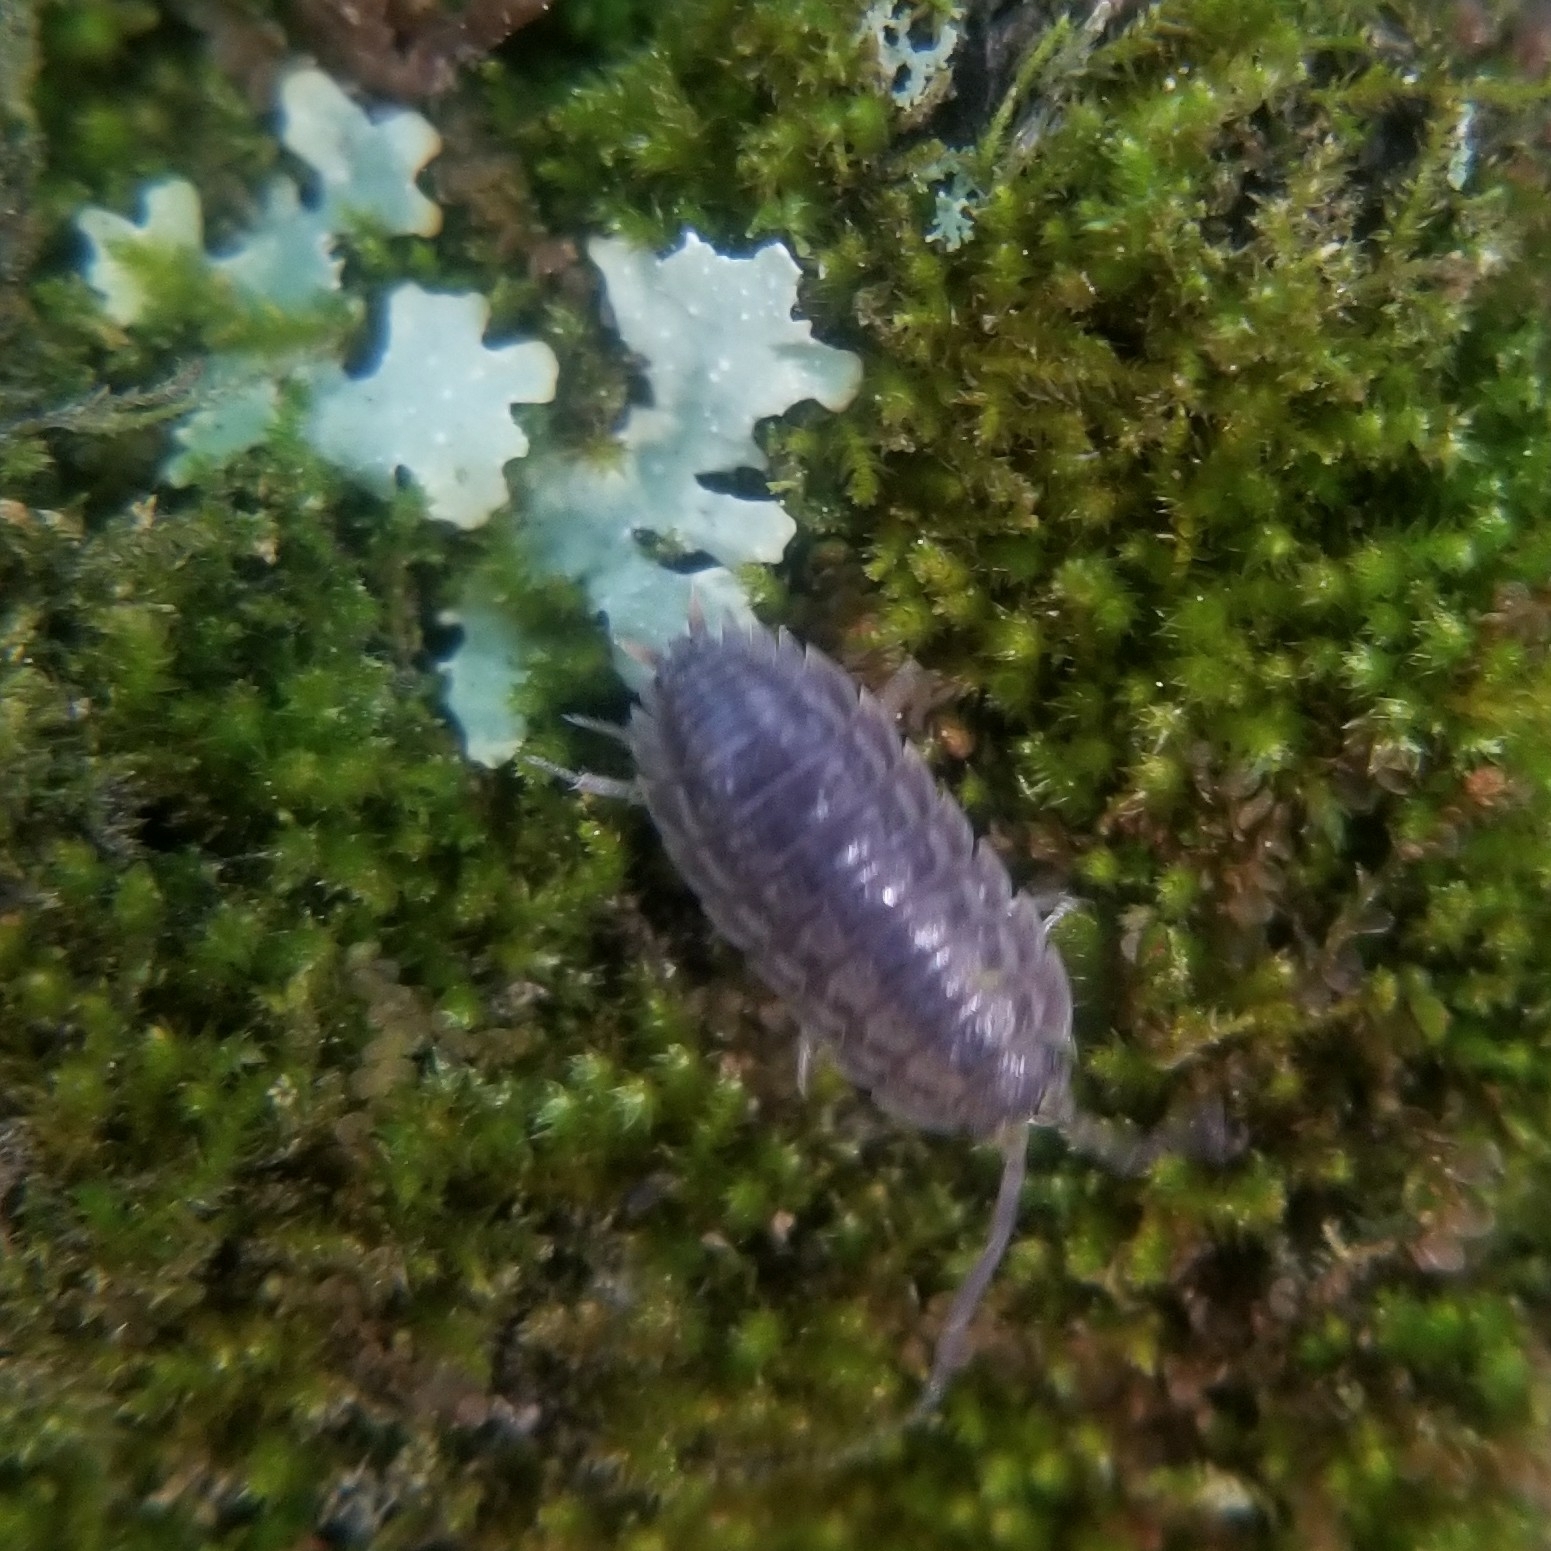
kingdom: Animalia
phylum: Arthropoda
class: Malacostraca
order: Isopoda
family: Trachelipodidae
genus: Trachelipus
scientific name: Trachelipus rathkii
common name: Isopod
